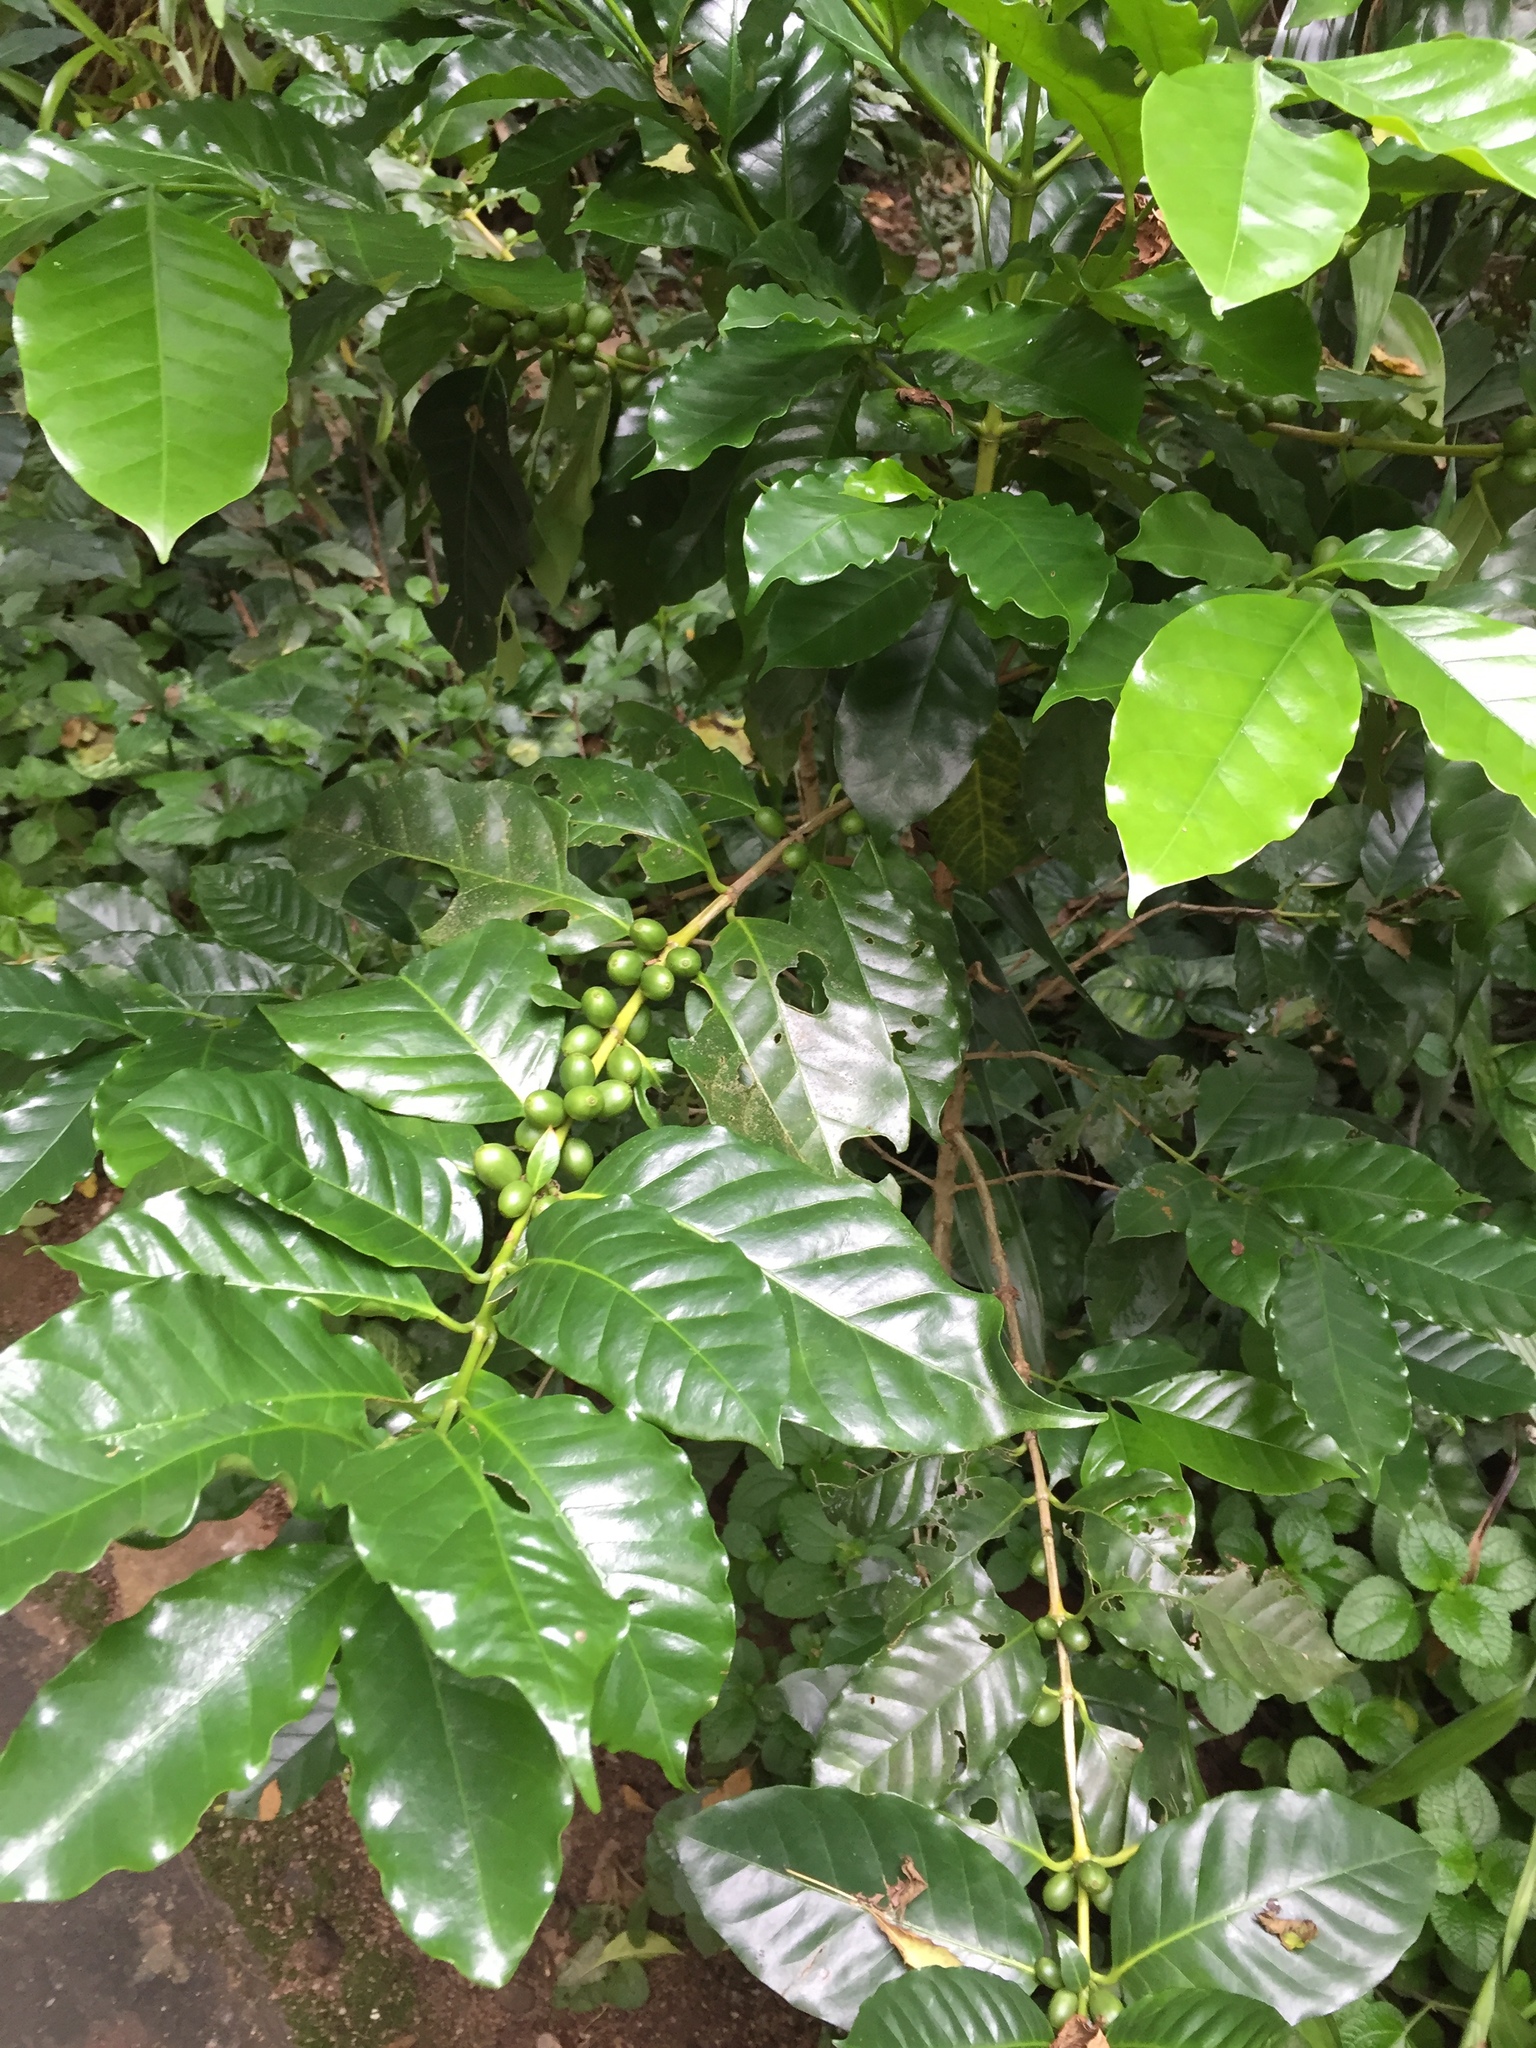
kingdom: Plantae
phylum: Tracheophyta
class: Magnoliopsida
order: Gentianales
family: Rubiaceae
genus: Coffea
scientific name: Coffea arabica
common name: Coffee
